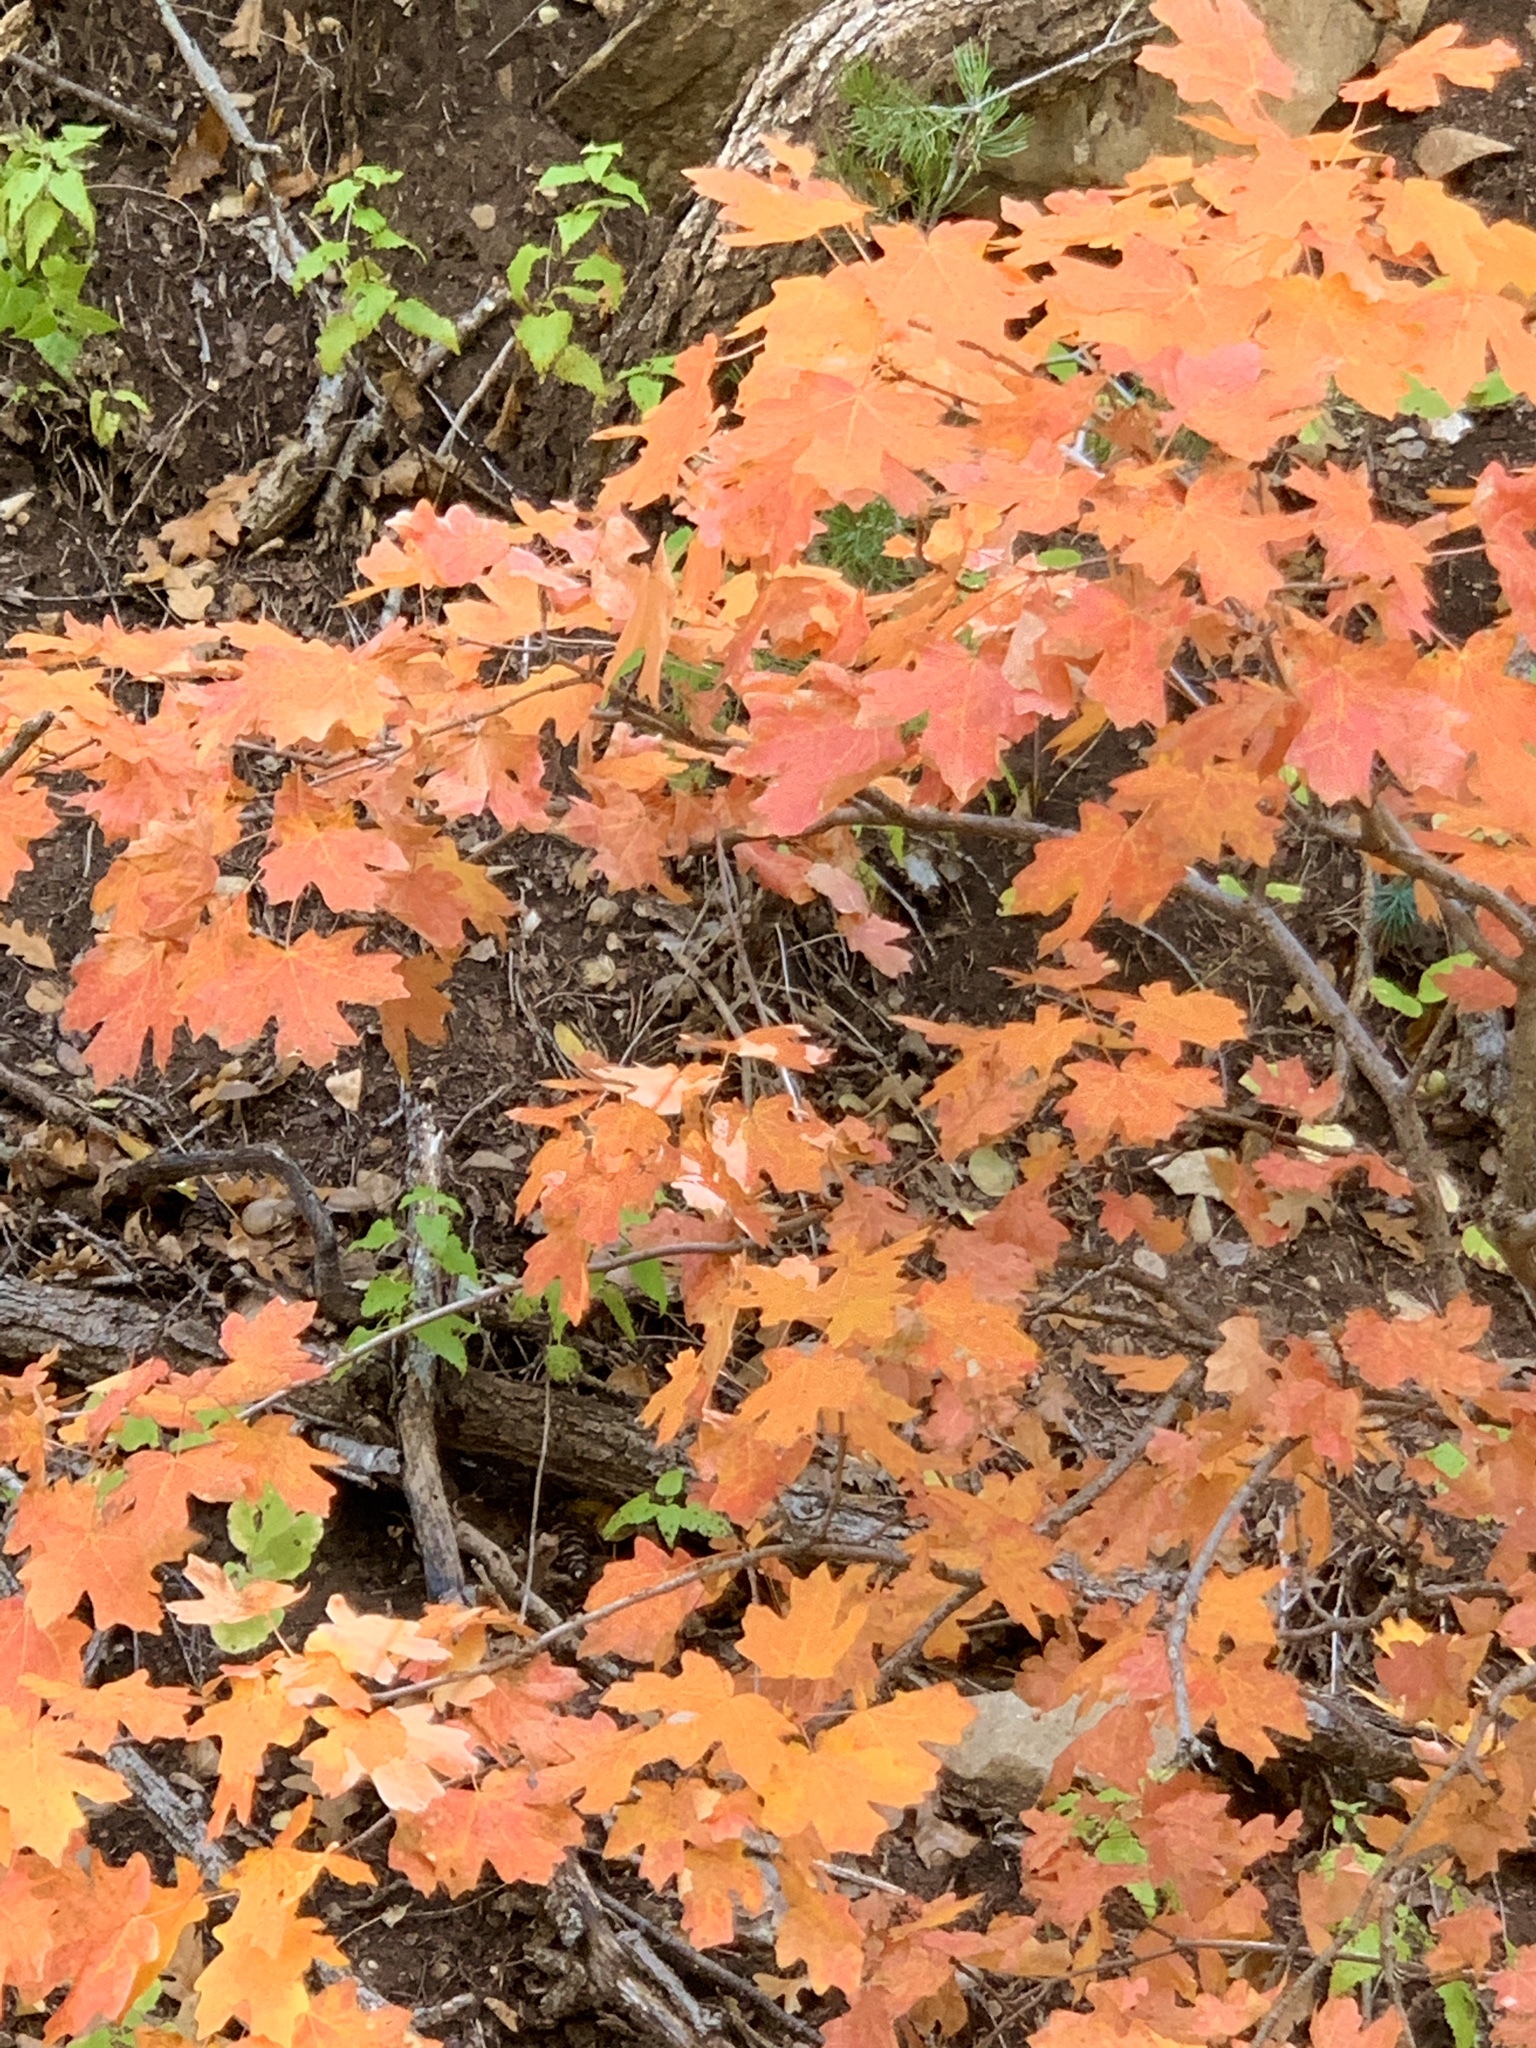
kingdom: Plantae
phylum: Tracheophyta
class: Magnoliopsida
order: Sapindales
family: Sapindaceae
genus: Acer
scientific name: Acer grandidentatum
